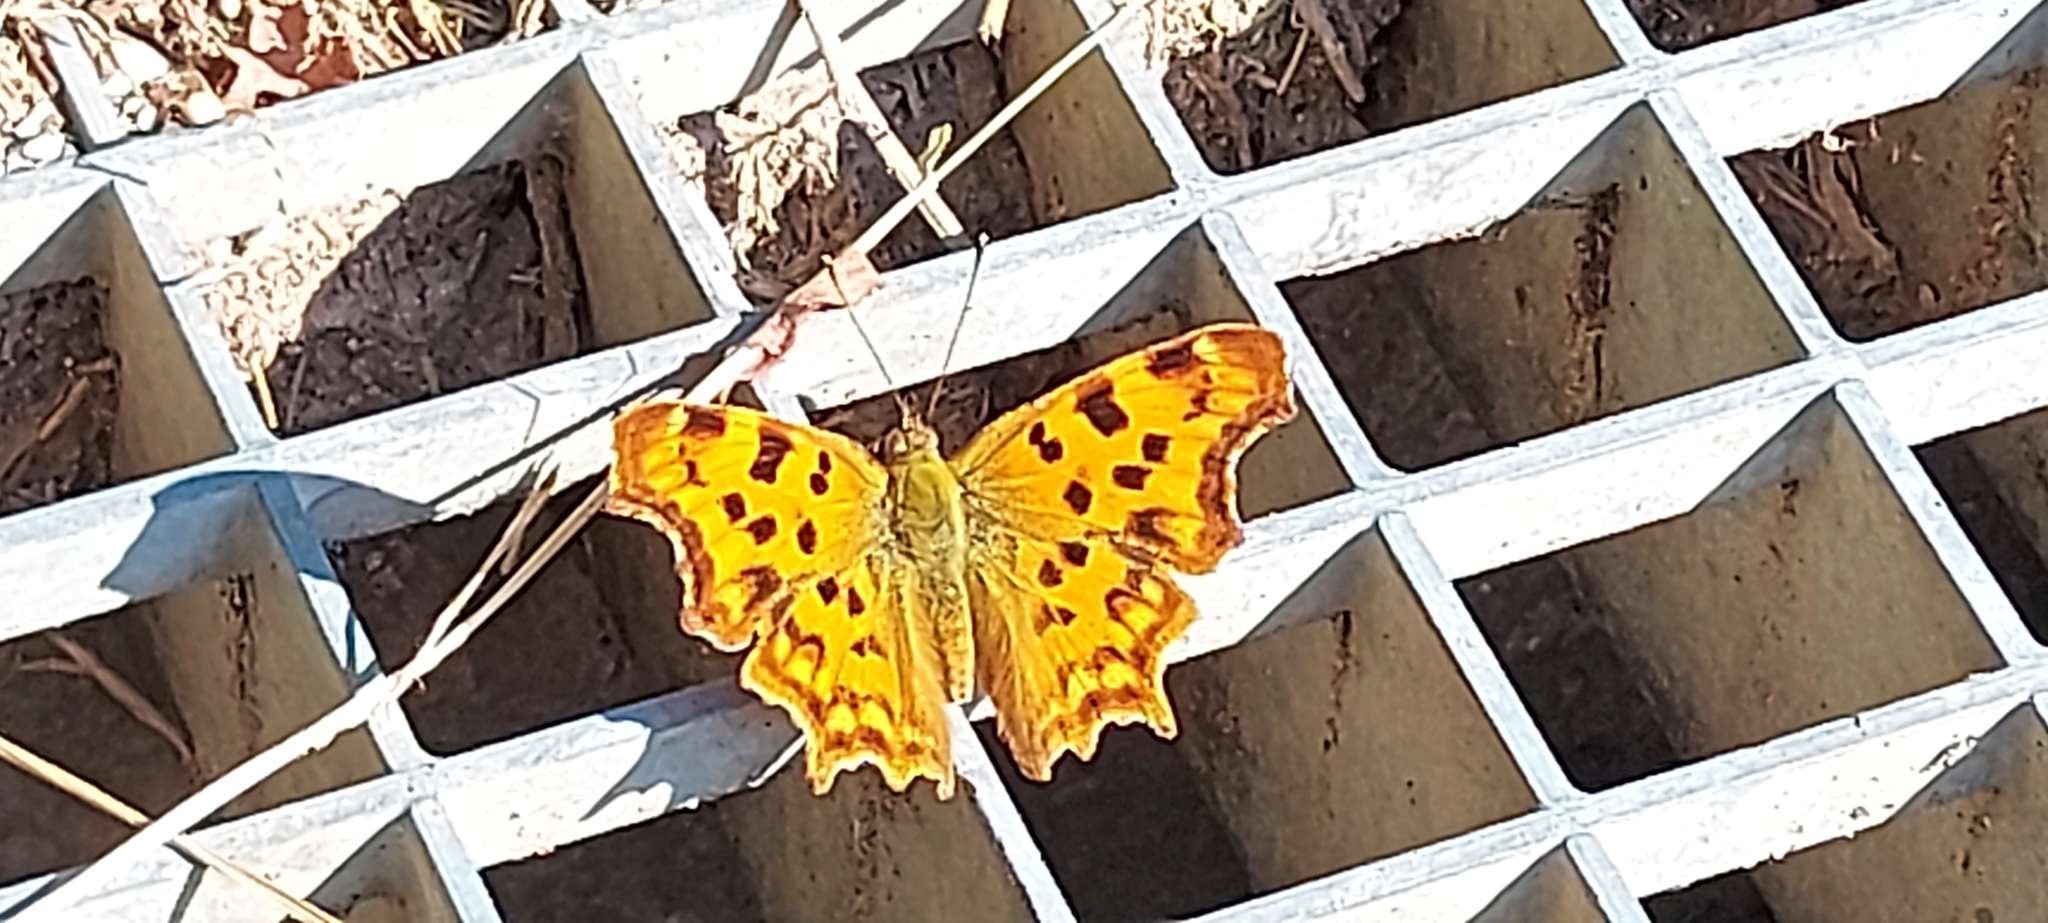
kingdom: Animalia
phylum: Arthropoda
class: Insecta
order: Lepidoptera
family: Nymphalidae
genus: Polygonia
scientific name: Polygonia c-album
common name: Comma
